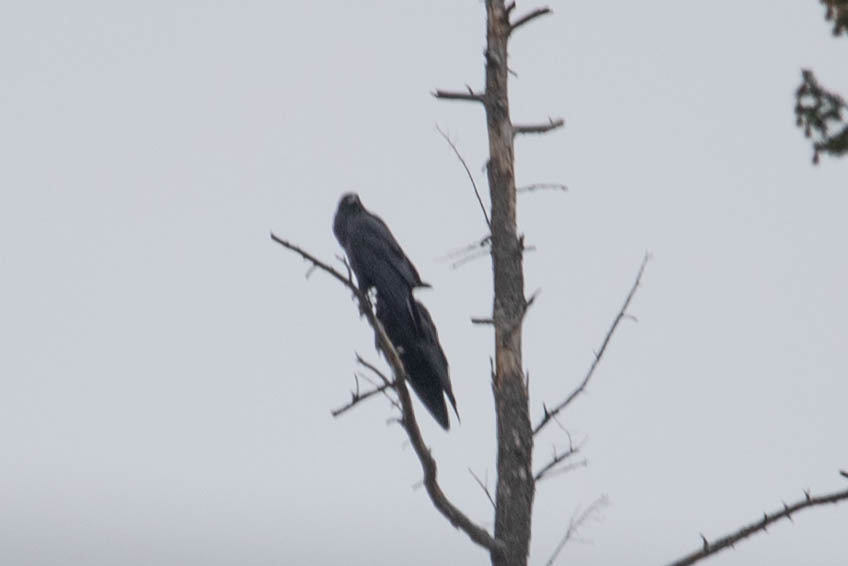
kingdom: Animalia
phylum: Chordata
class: Aves
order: Passeriformes
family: Corvidae
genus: Corvus
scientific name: Corvus corax
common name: Common raven
